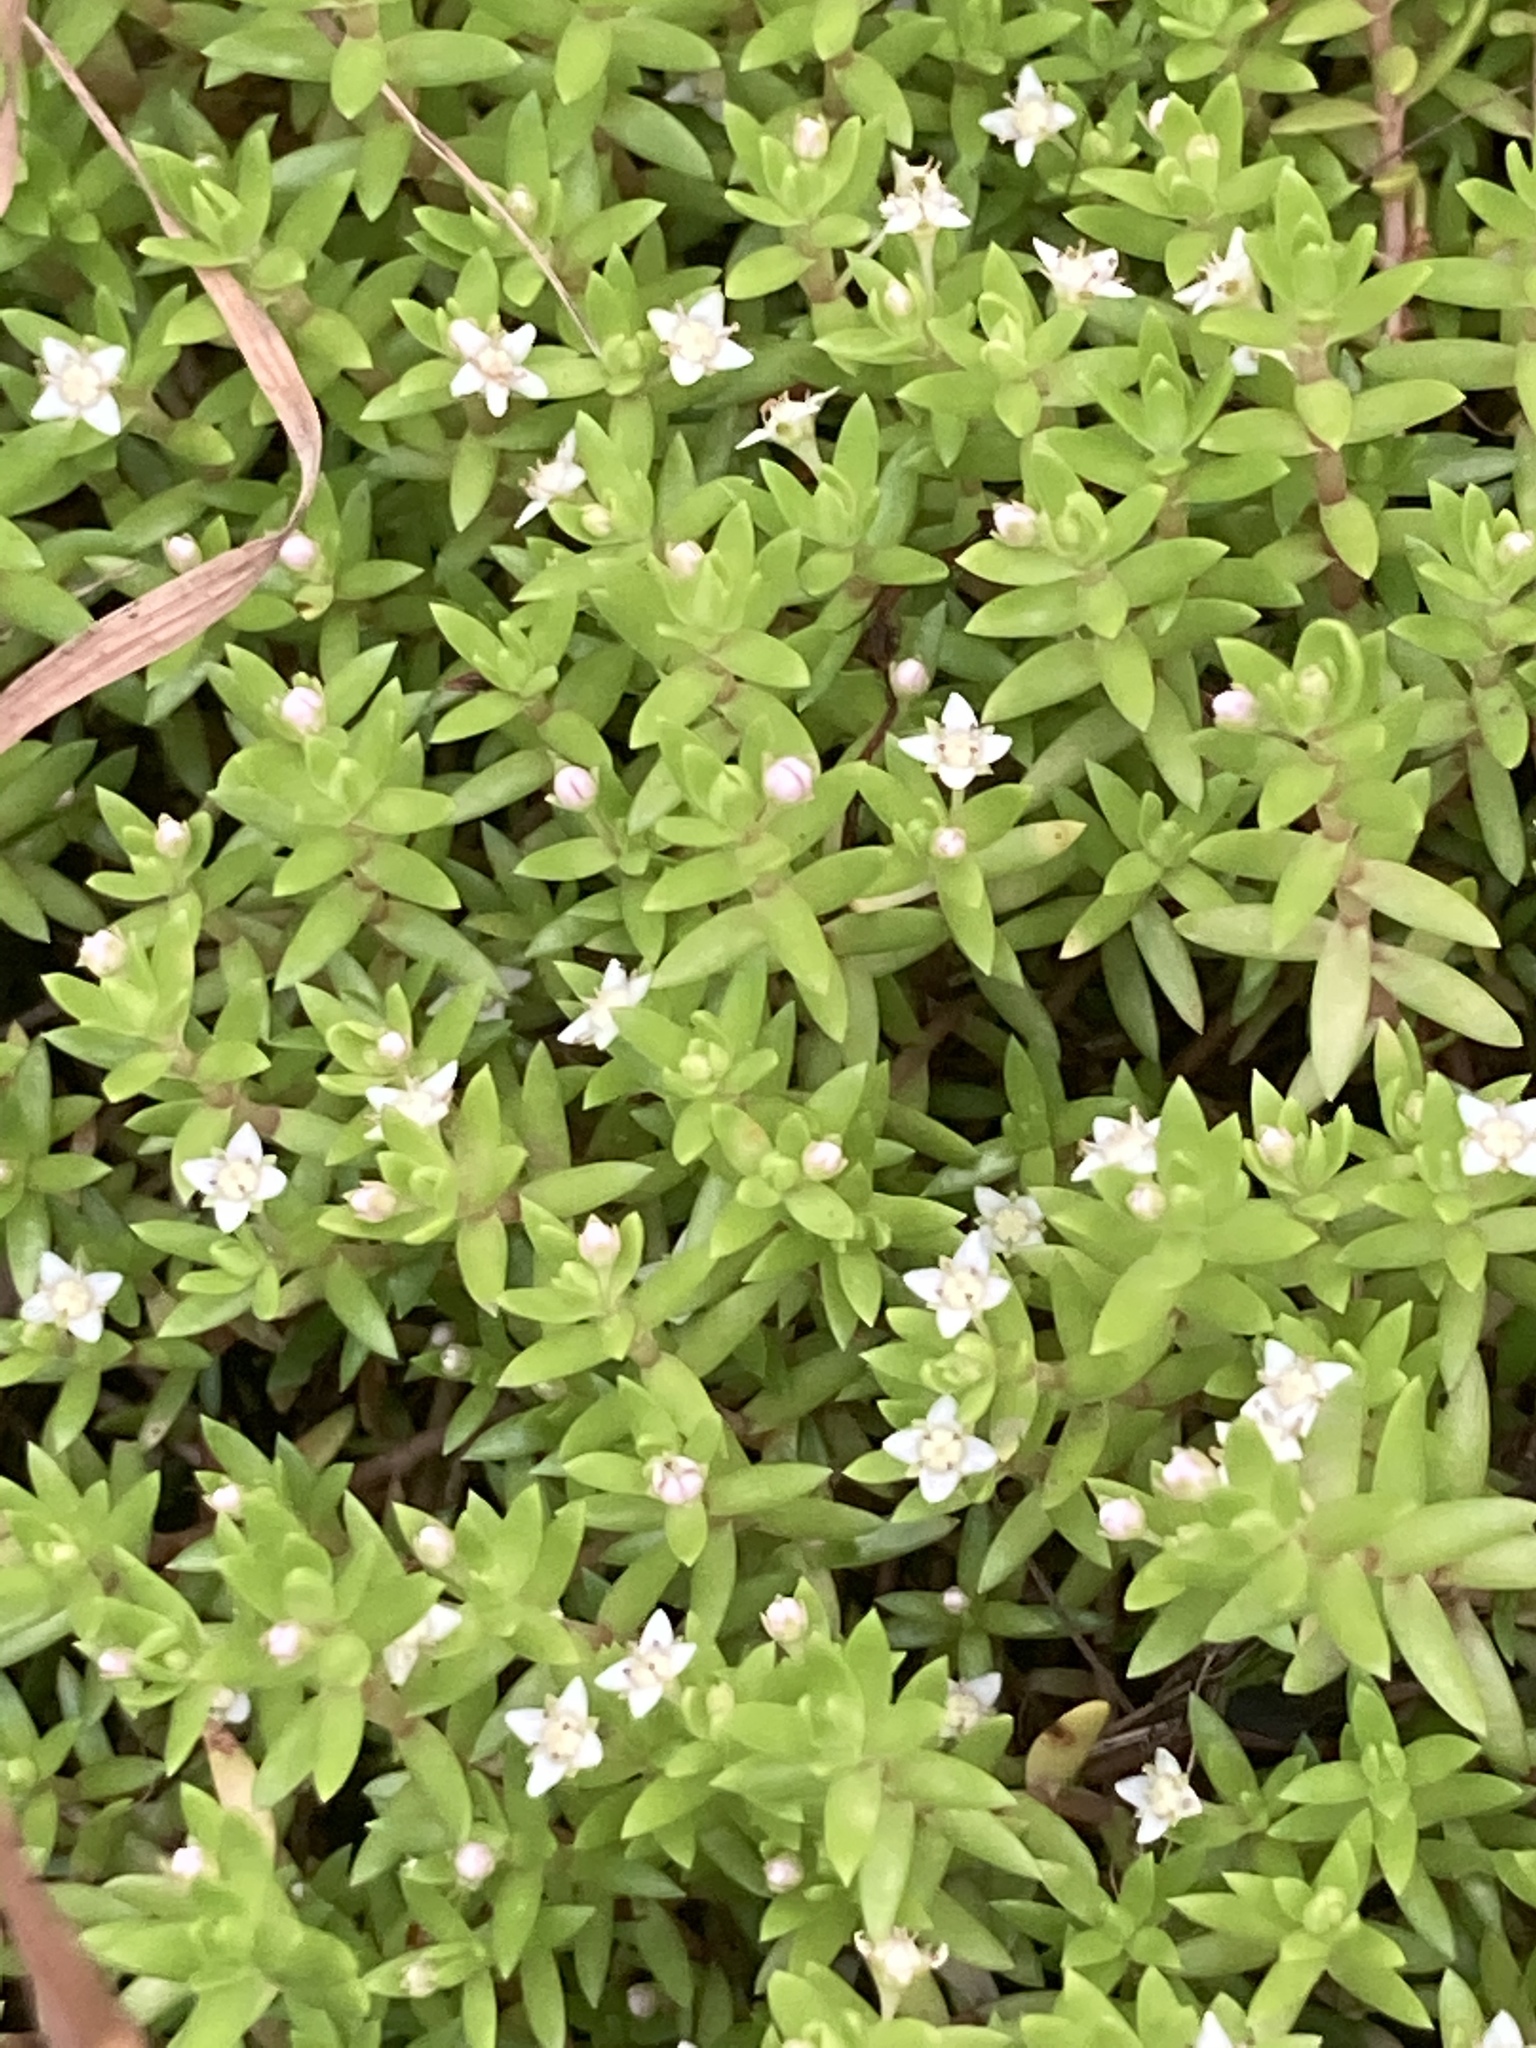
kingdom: Plantae
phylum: Tracheophyta
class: Magnoliopsida
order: Saxifragales
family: Crassulaceae
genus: Crassula
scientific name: Crassula helmsii
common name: New zealand pigmyweed
